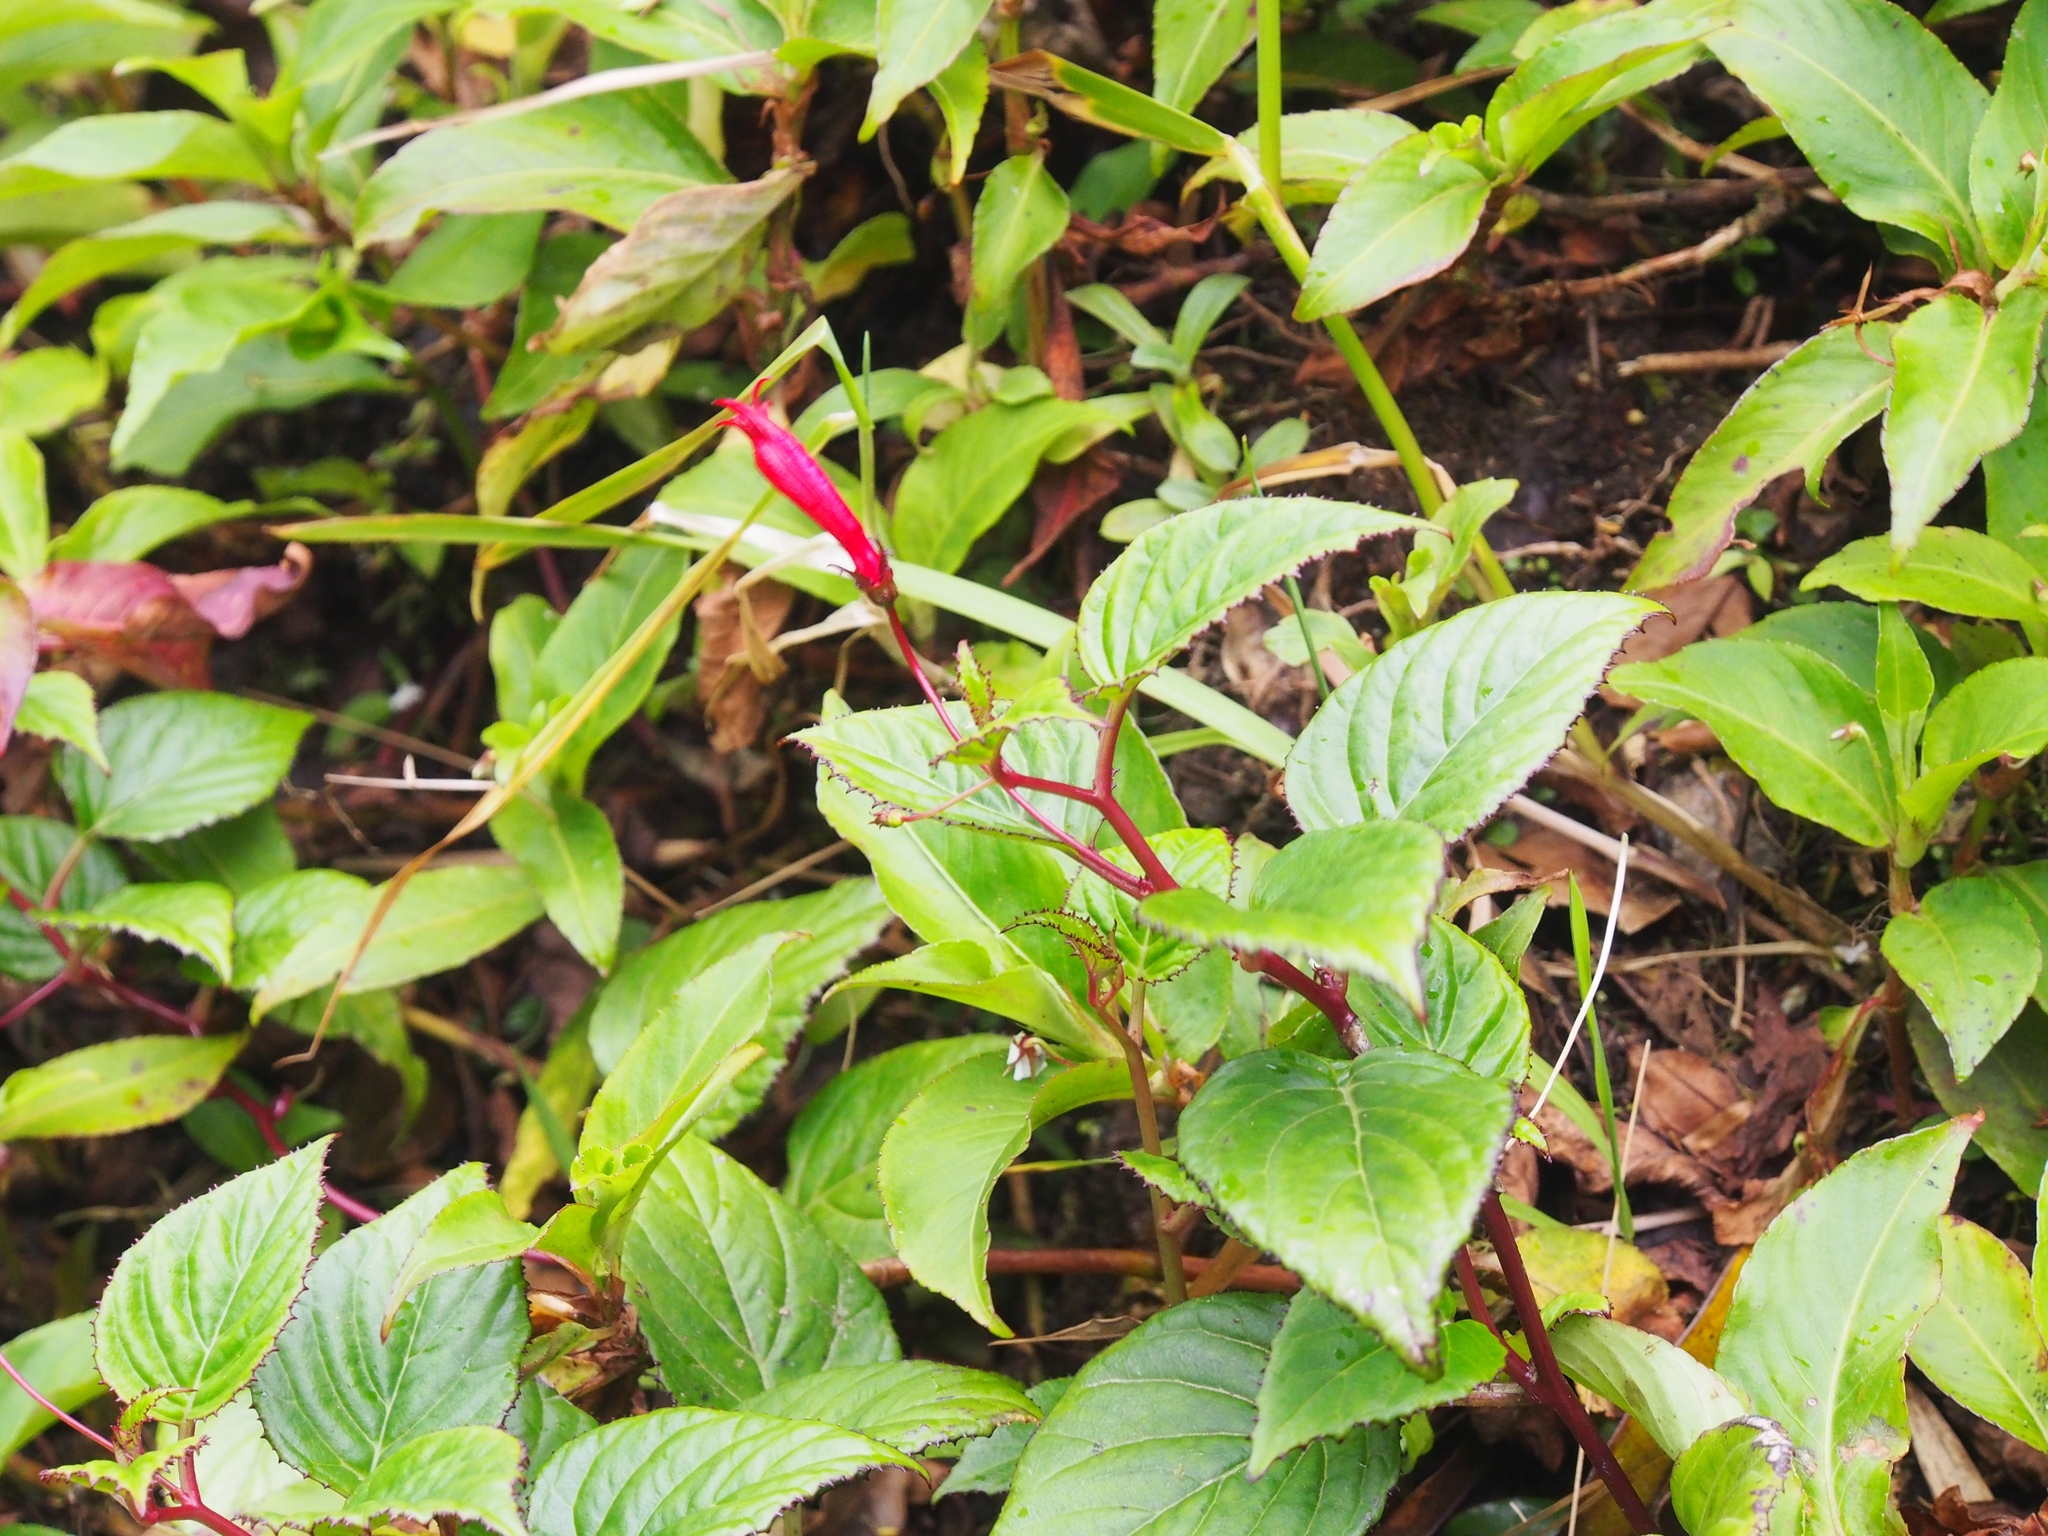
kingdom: Plantae
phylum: Tracheophyta
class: Magnoliopsida
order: Asterales
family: Campanulaceae
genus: Centropogon
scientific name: Centropogon costaricae
